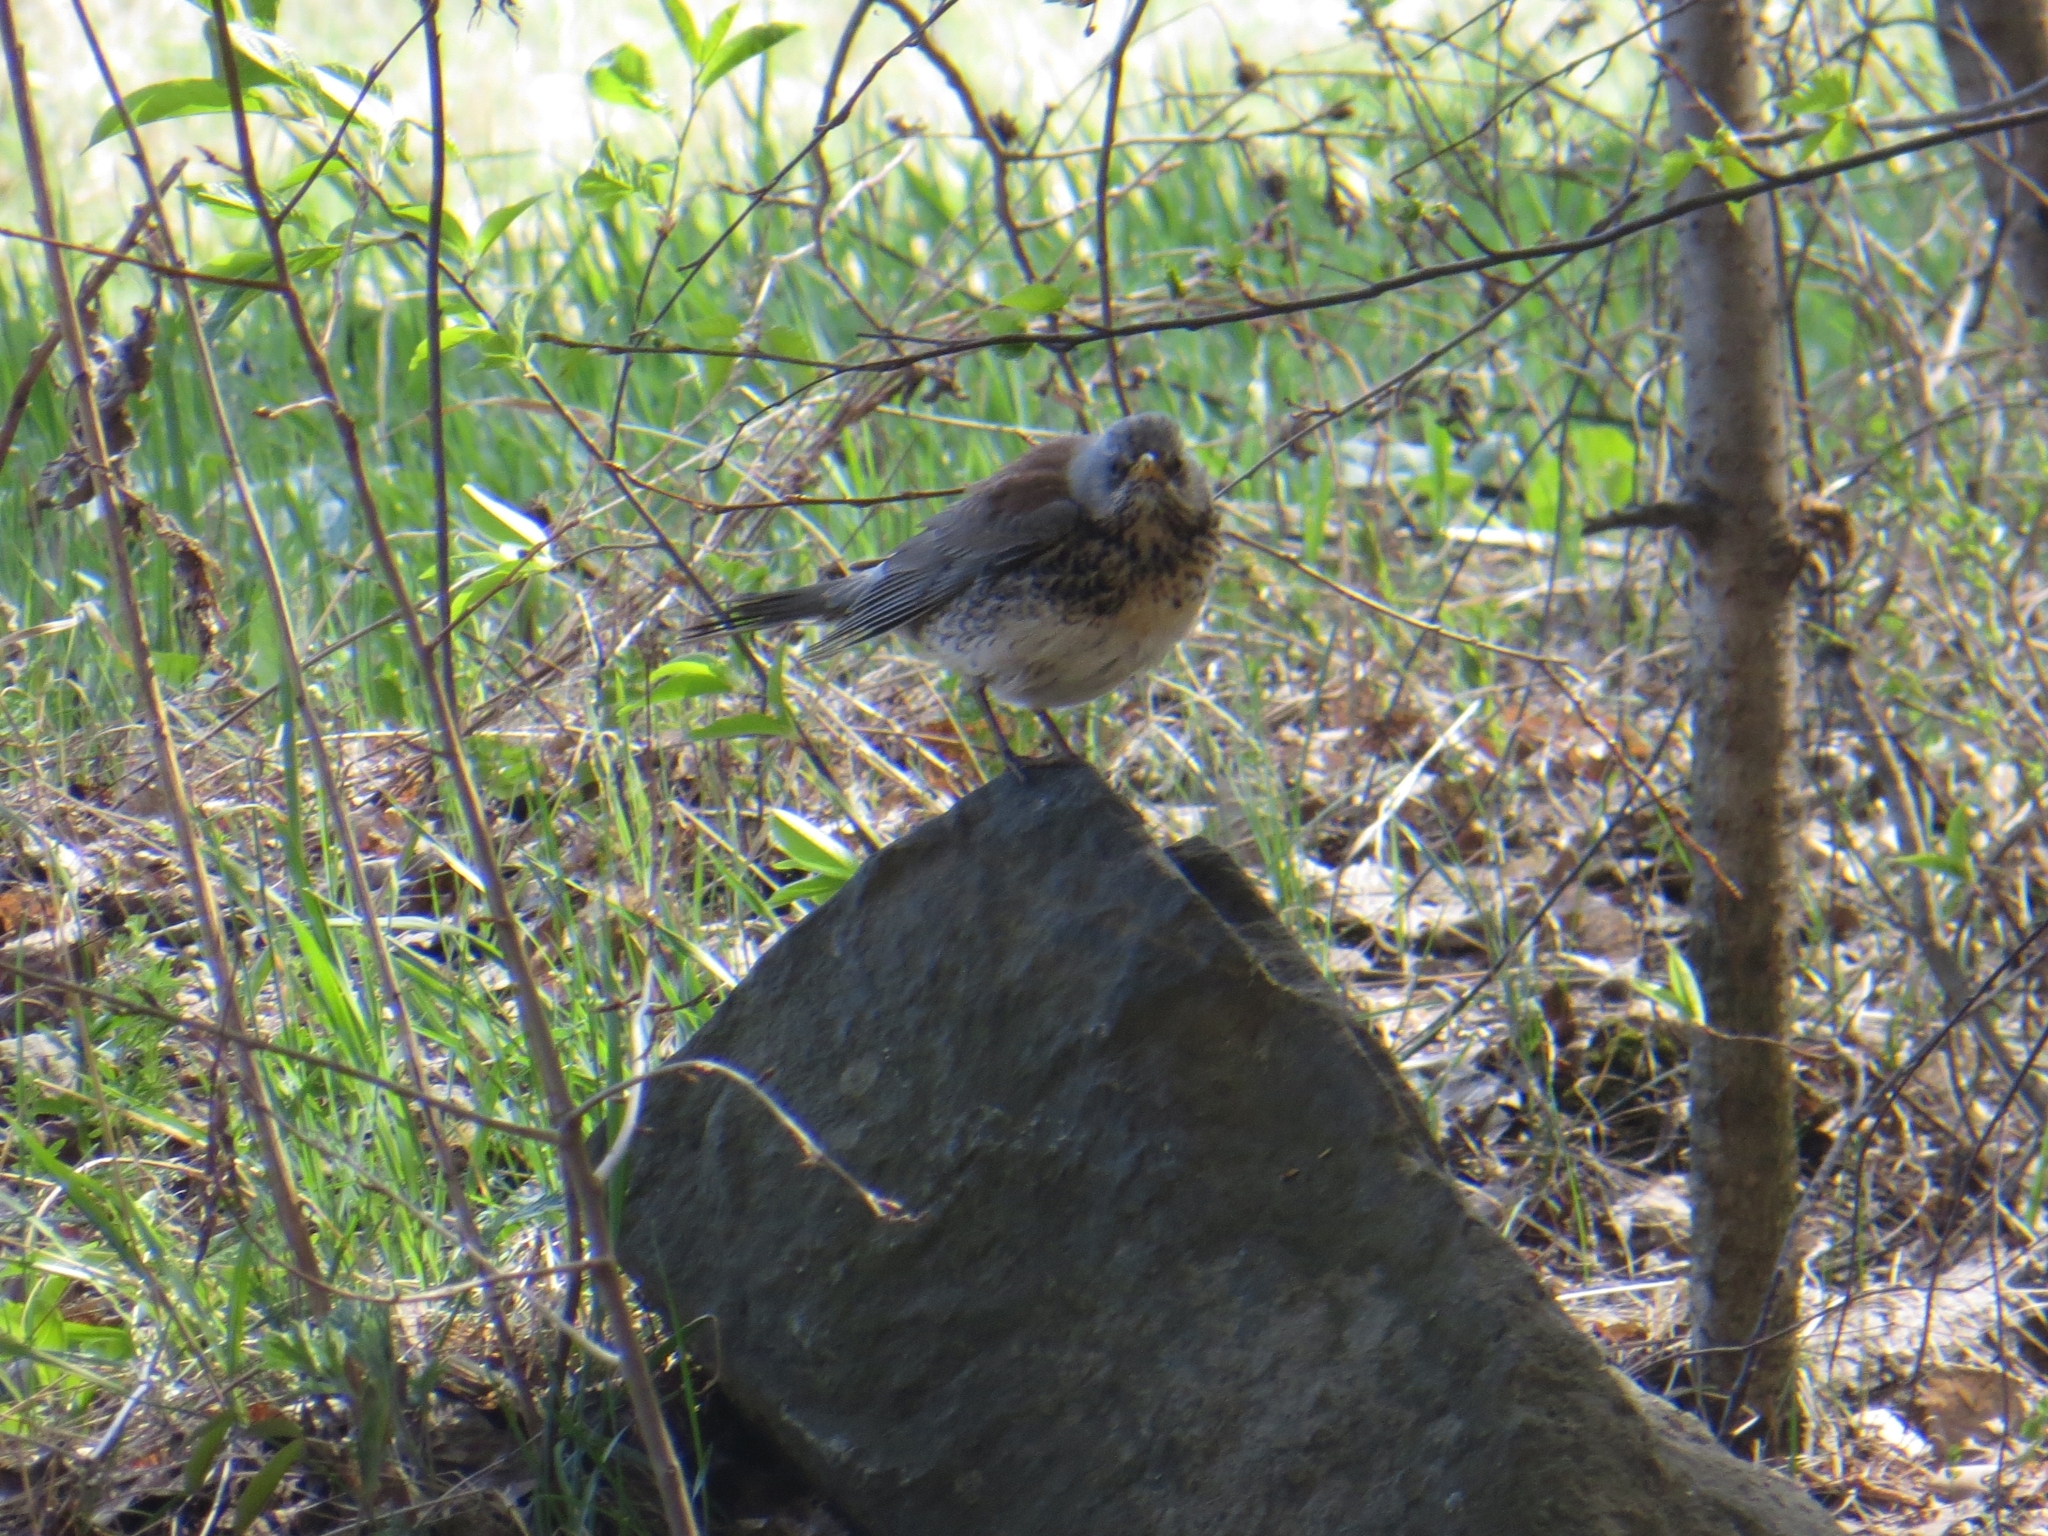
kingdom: Animalia
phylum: Chordata
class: Aves
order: Passeriformes
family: Turdidae
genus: Turdus
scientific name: Turdus pilaris
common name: Fieldfare
